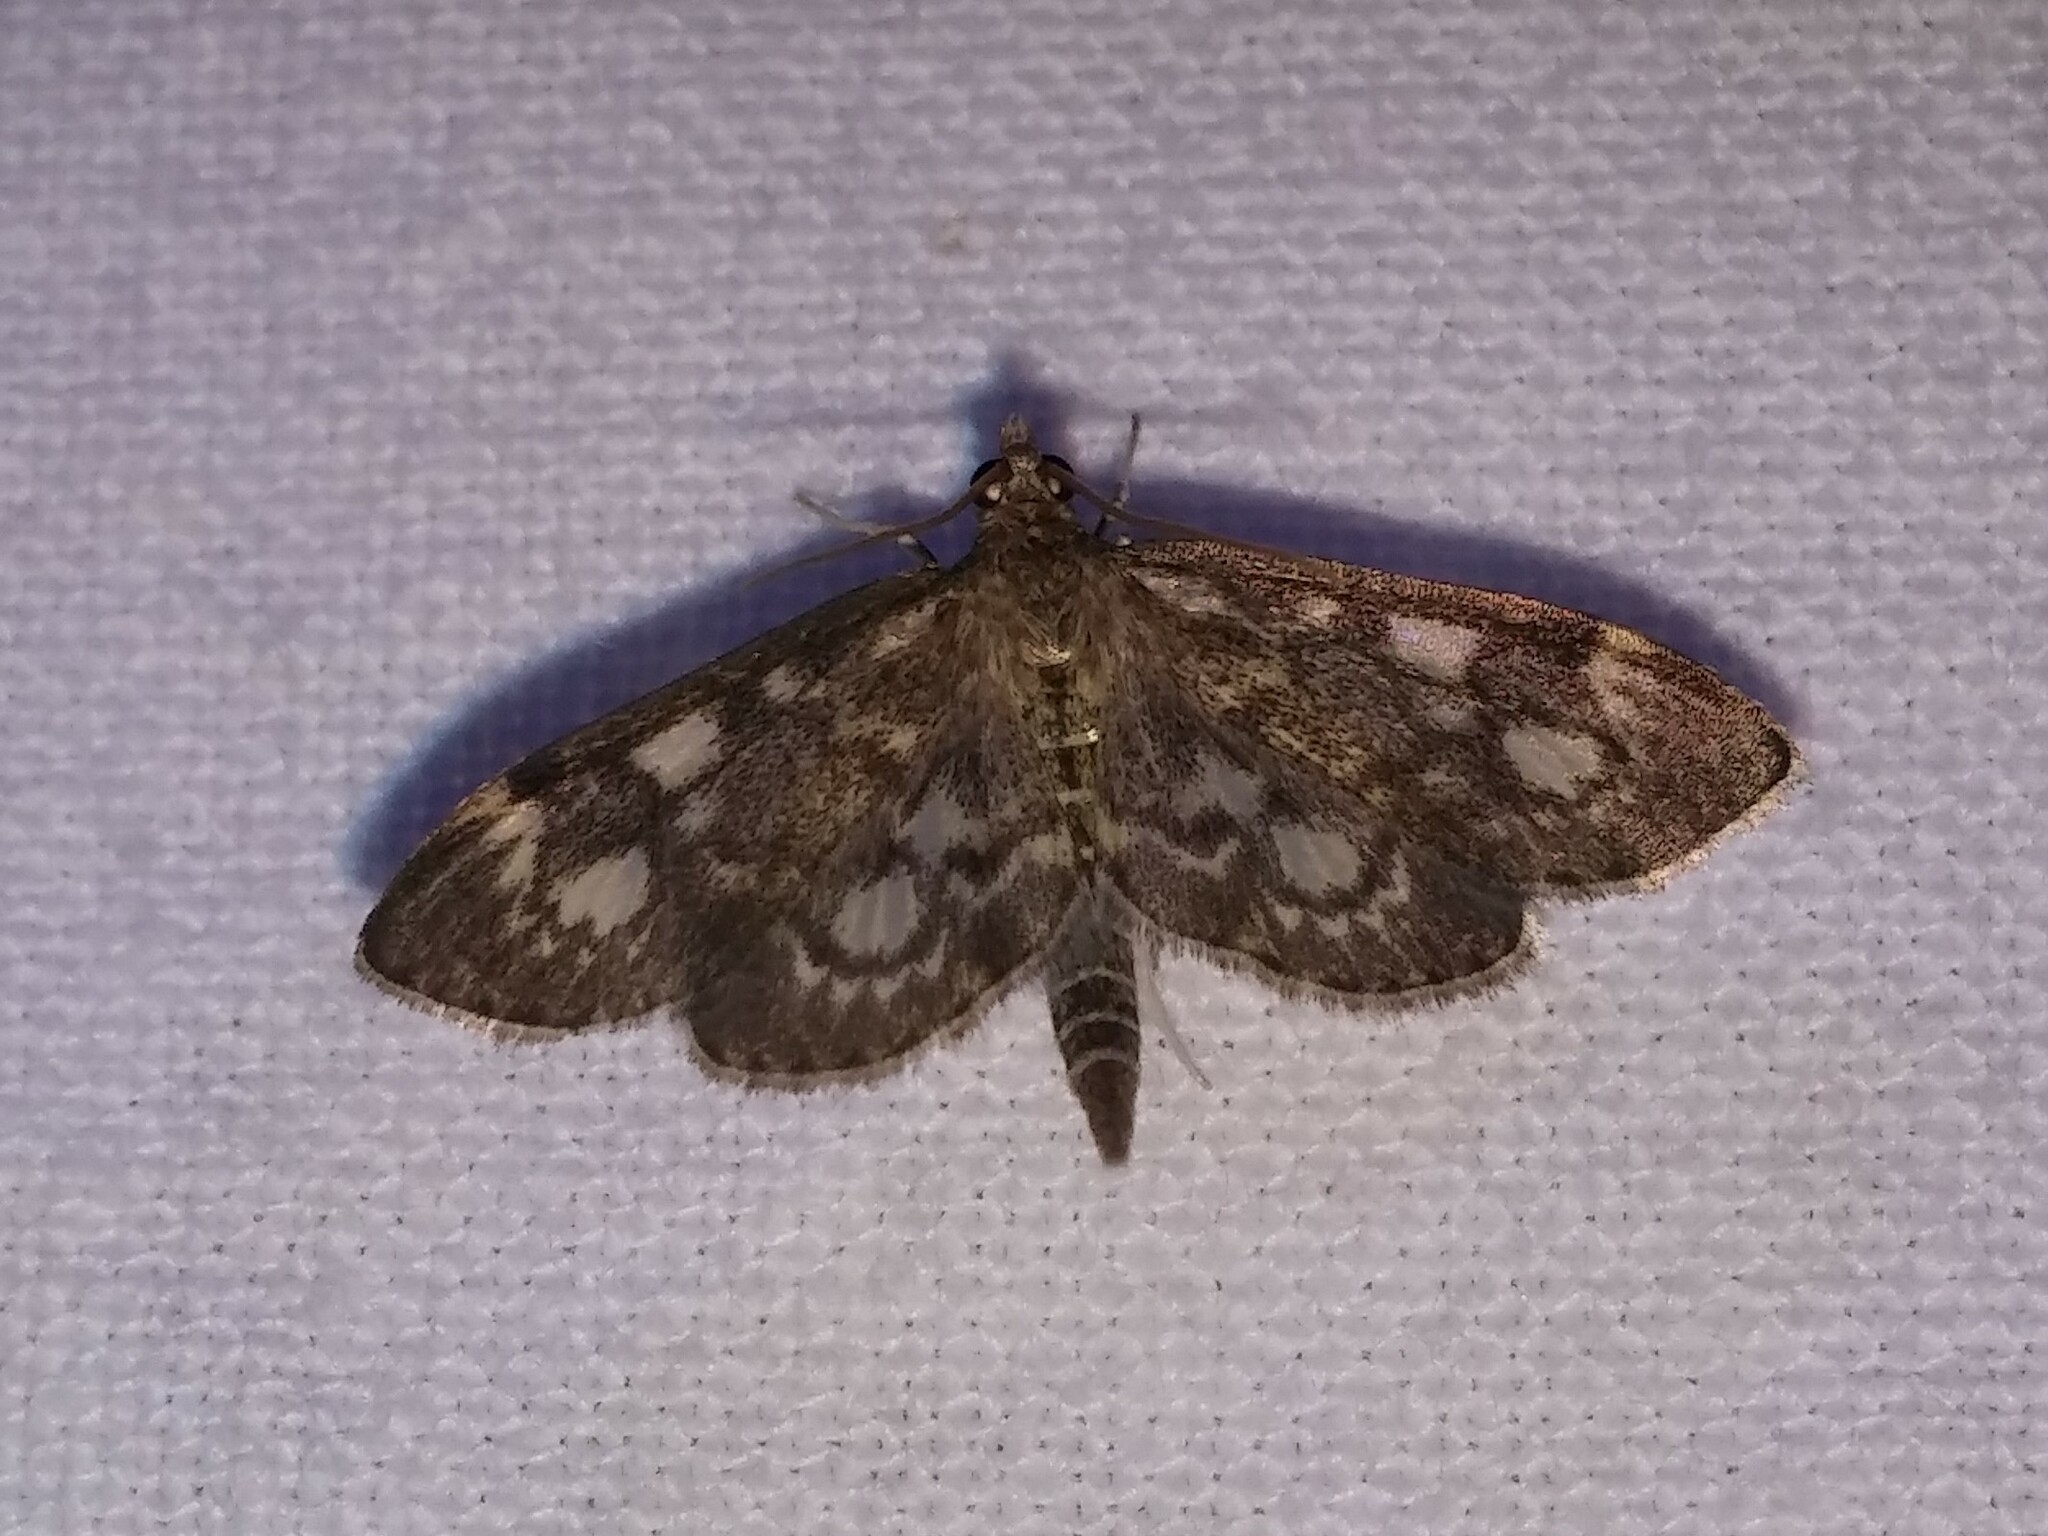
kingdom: Animalia
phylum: Arthropoda
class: Insecta
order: Lepidoptera
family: Crambidae
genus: Anania
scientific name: Anania
